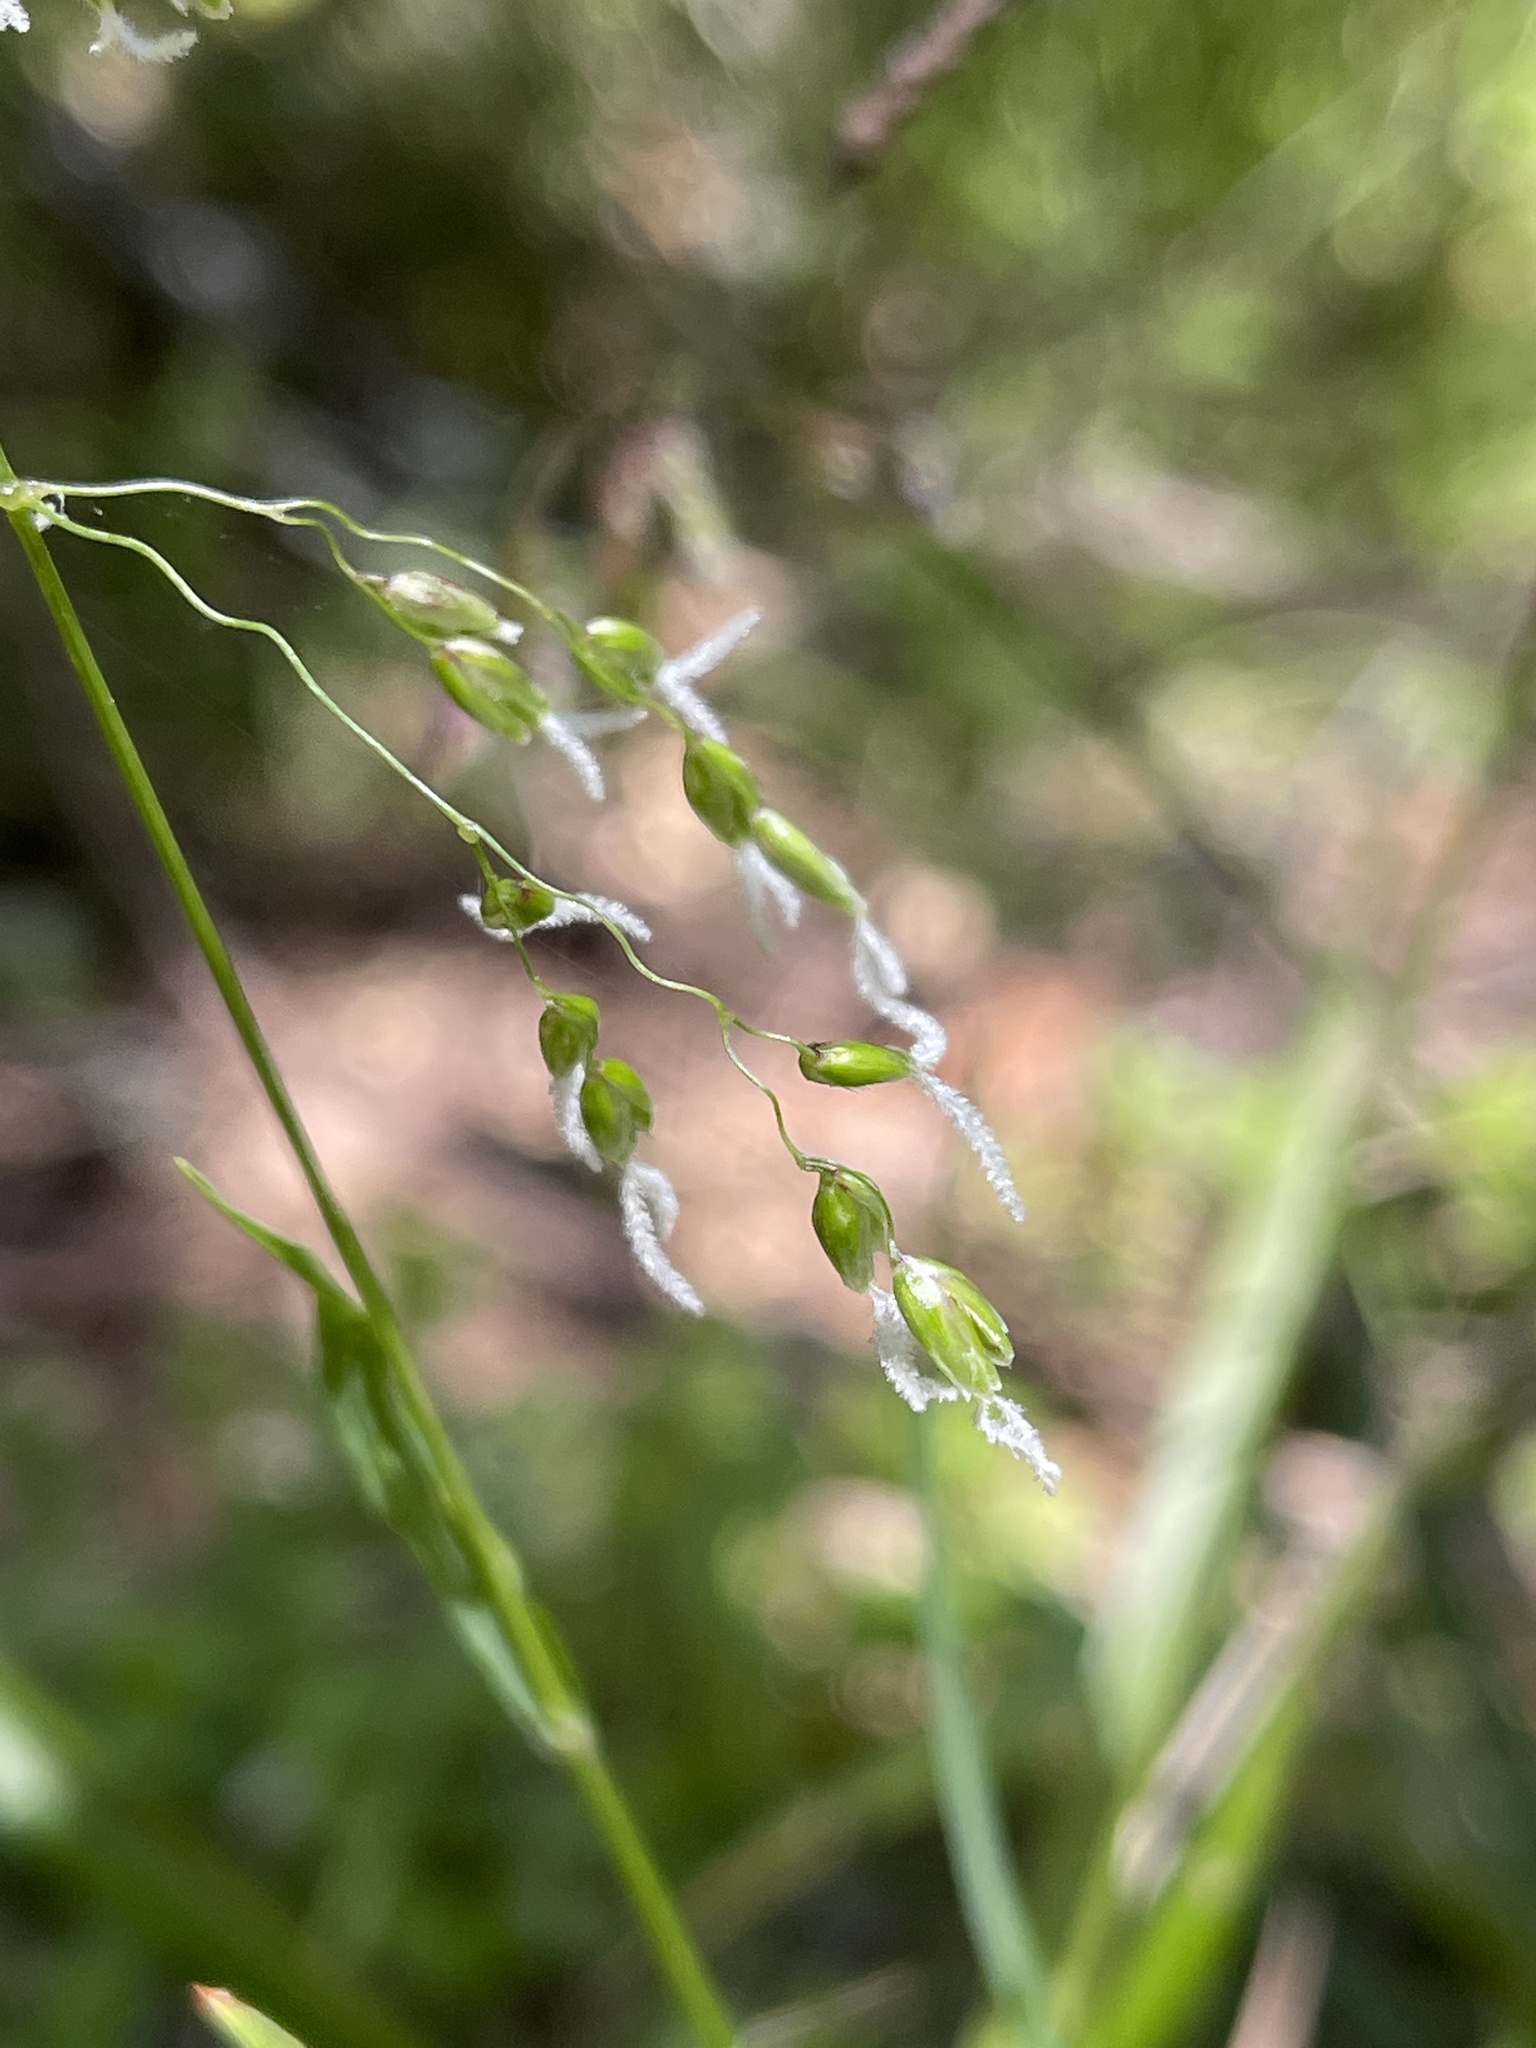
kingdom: Plantae
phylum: Tracheophyta
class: Liliopsida
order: Poales
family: Poaceae
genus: Anthoxanthum
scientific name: Anthoxanthum occidentale
